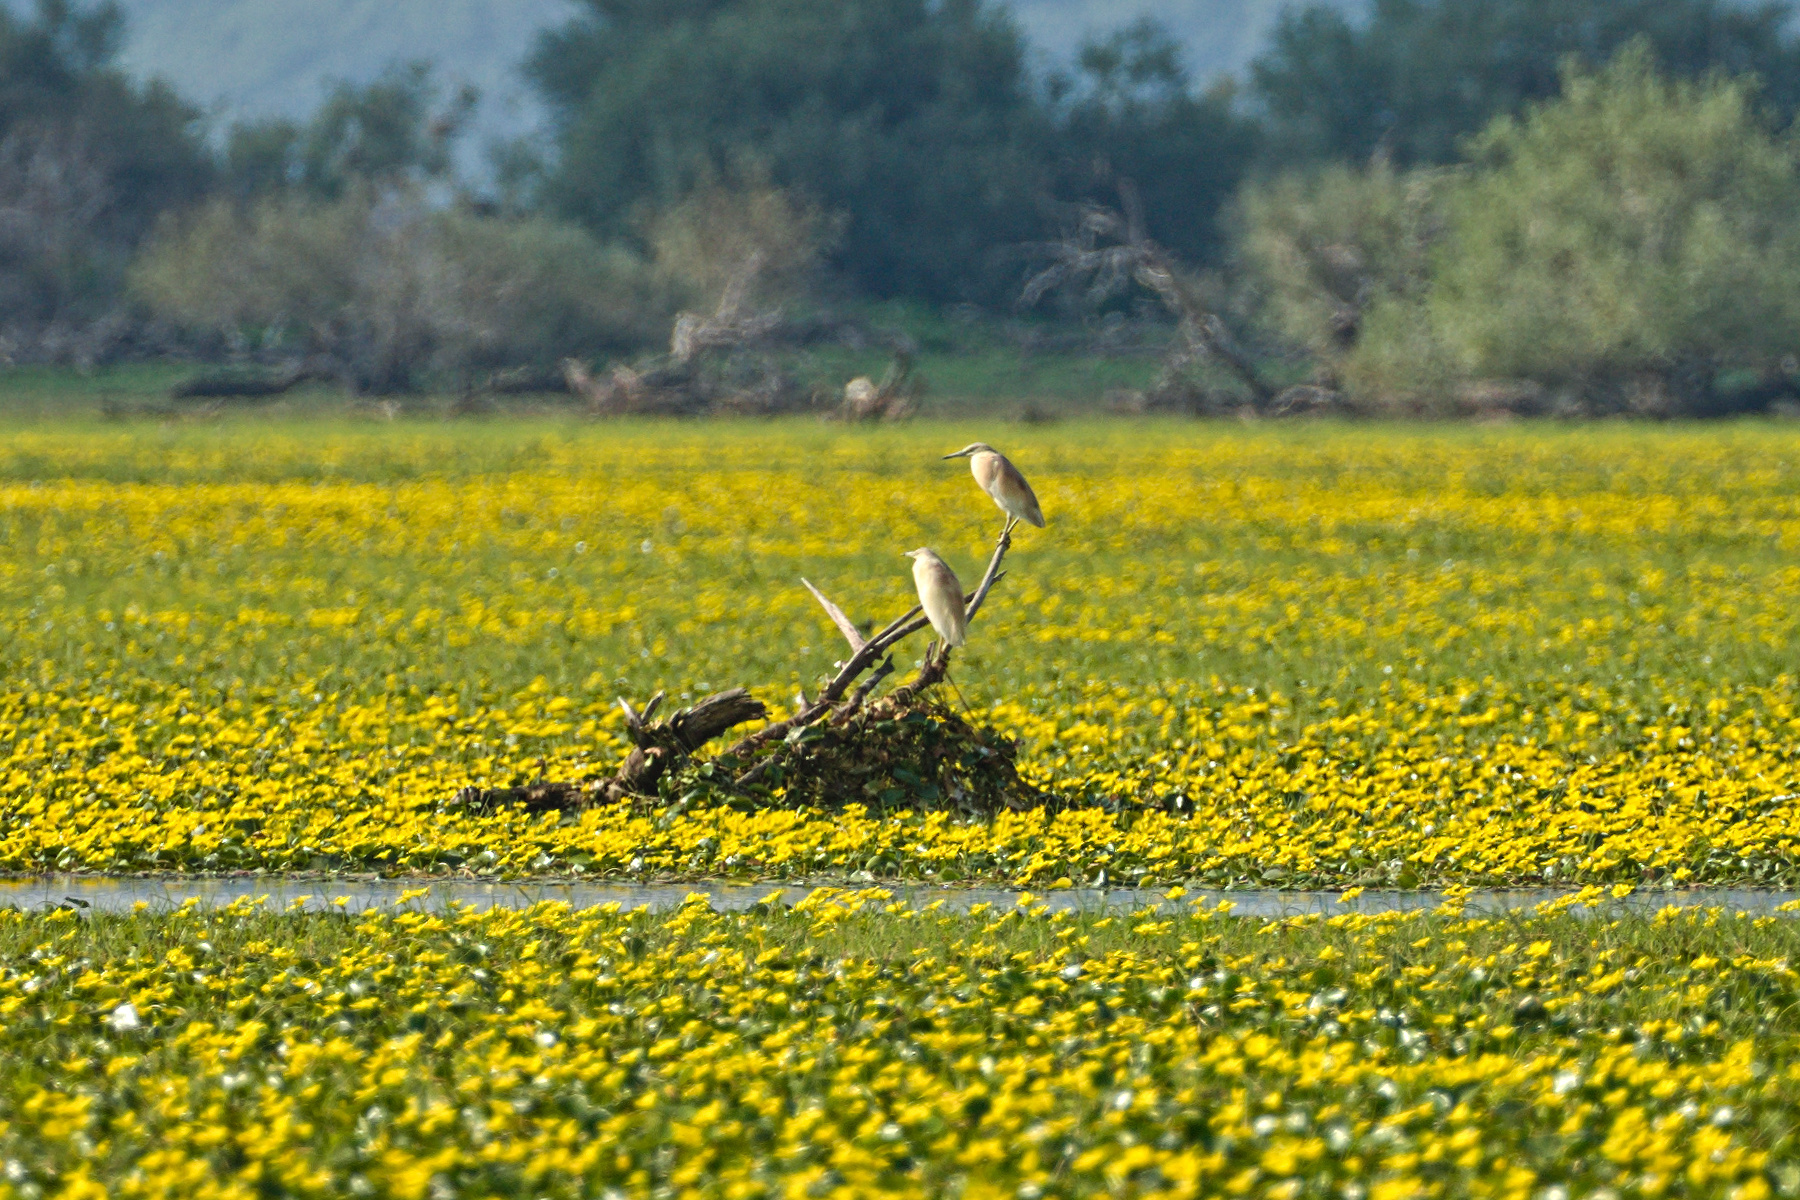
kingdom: Animalia
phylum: Chordata
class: Aves
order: Pelecaniformes
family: Ardeidae
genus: Ardeola
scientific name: Ardeola ralloides
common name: Squacco heron
